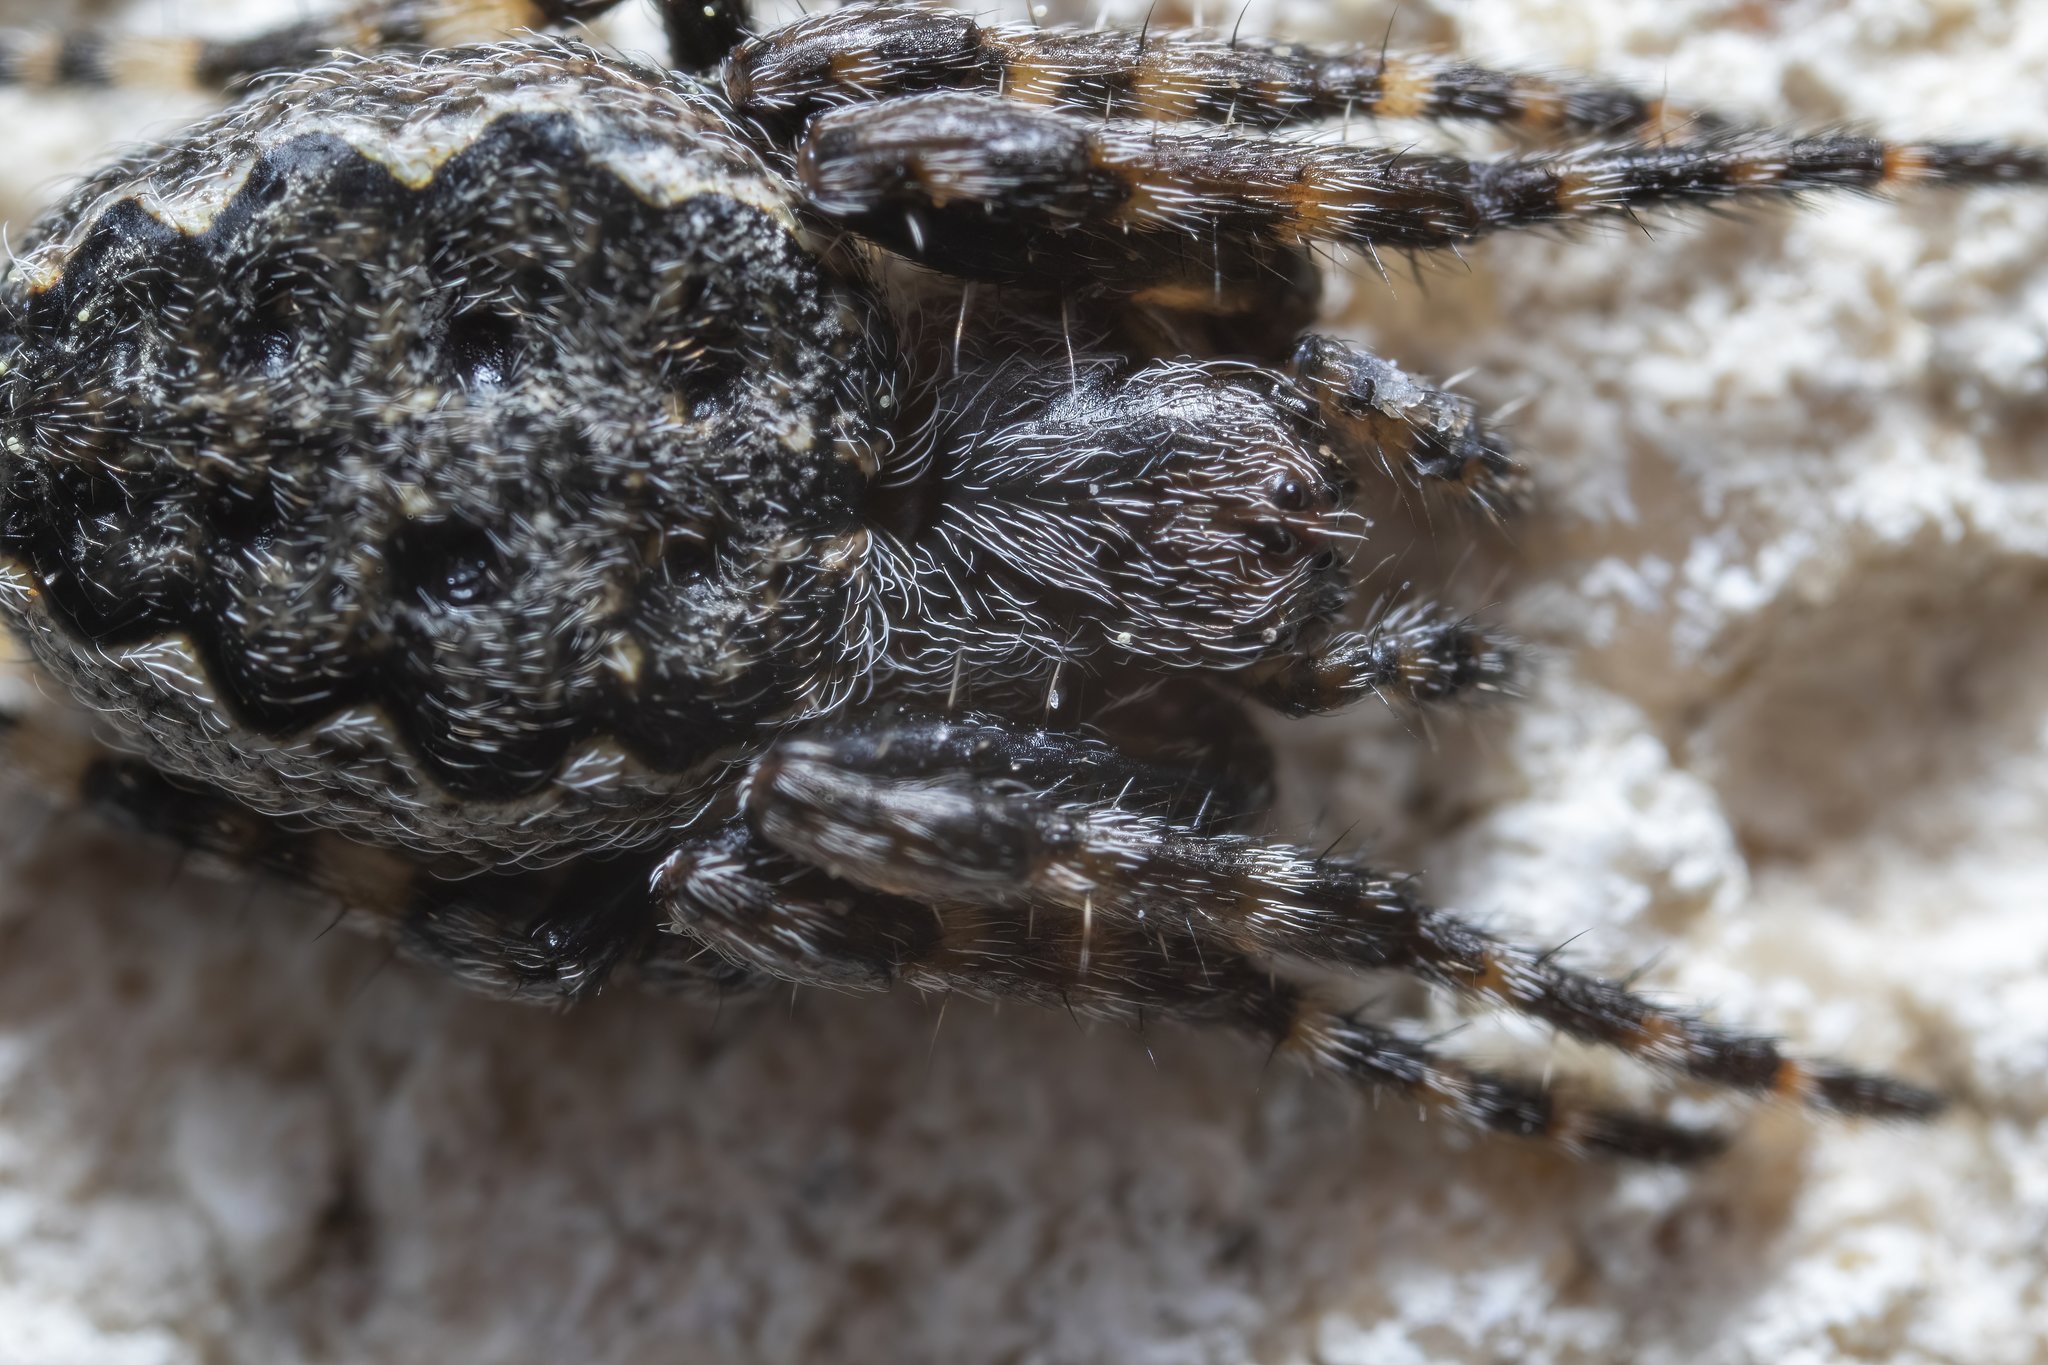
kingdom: Animalia
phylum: Arthropoda
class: Arachnida
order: Araneae
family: Araneidae
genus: Nuctenea
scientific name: Nuctenea umbratica
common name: Toad spider
